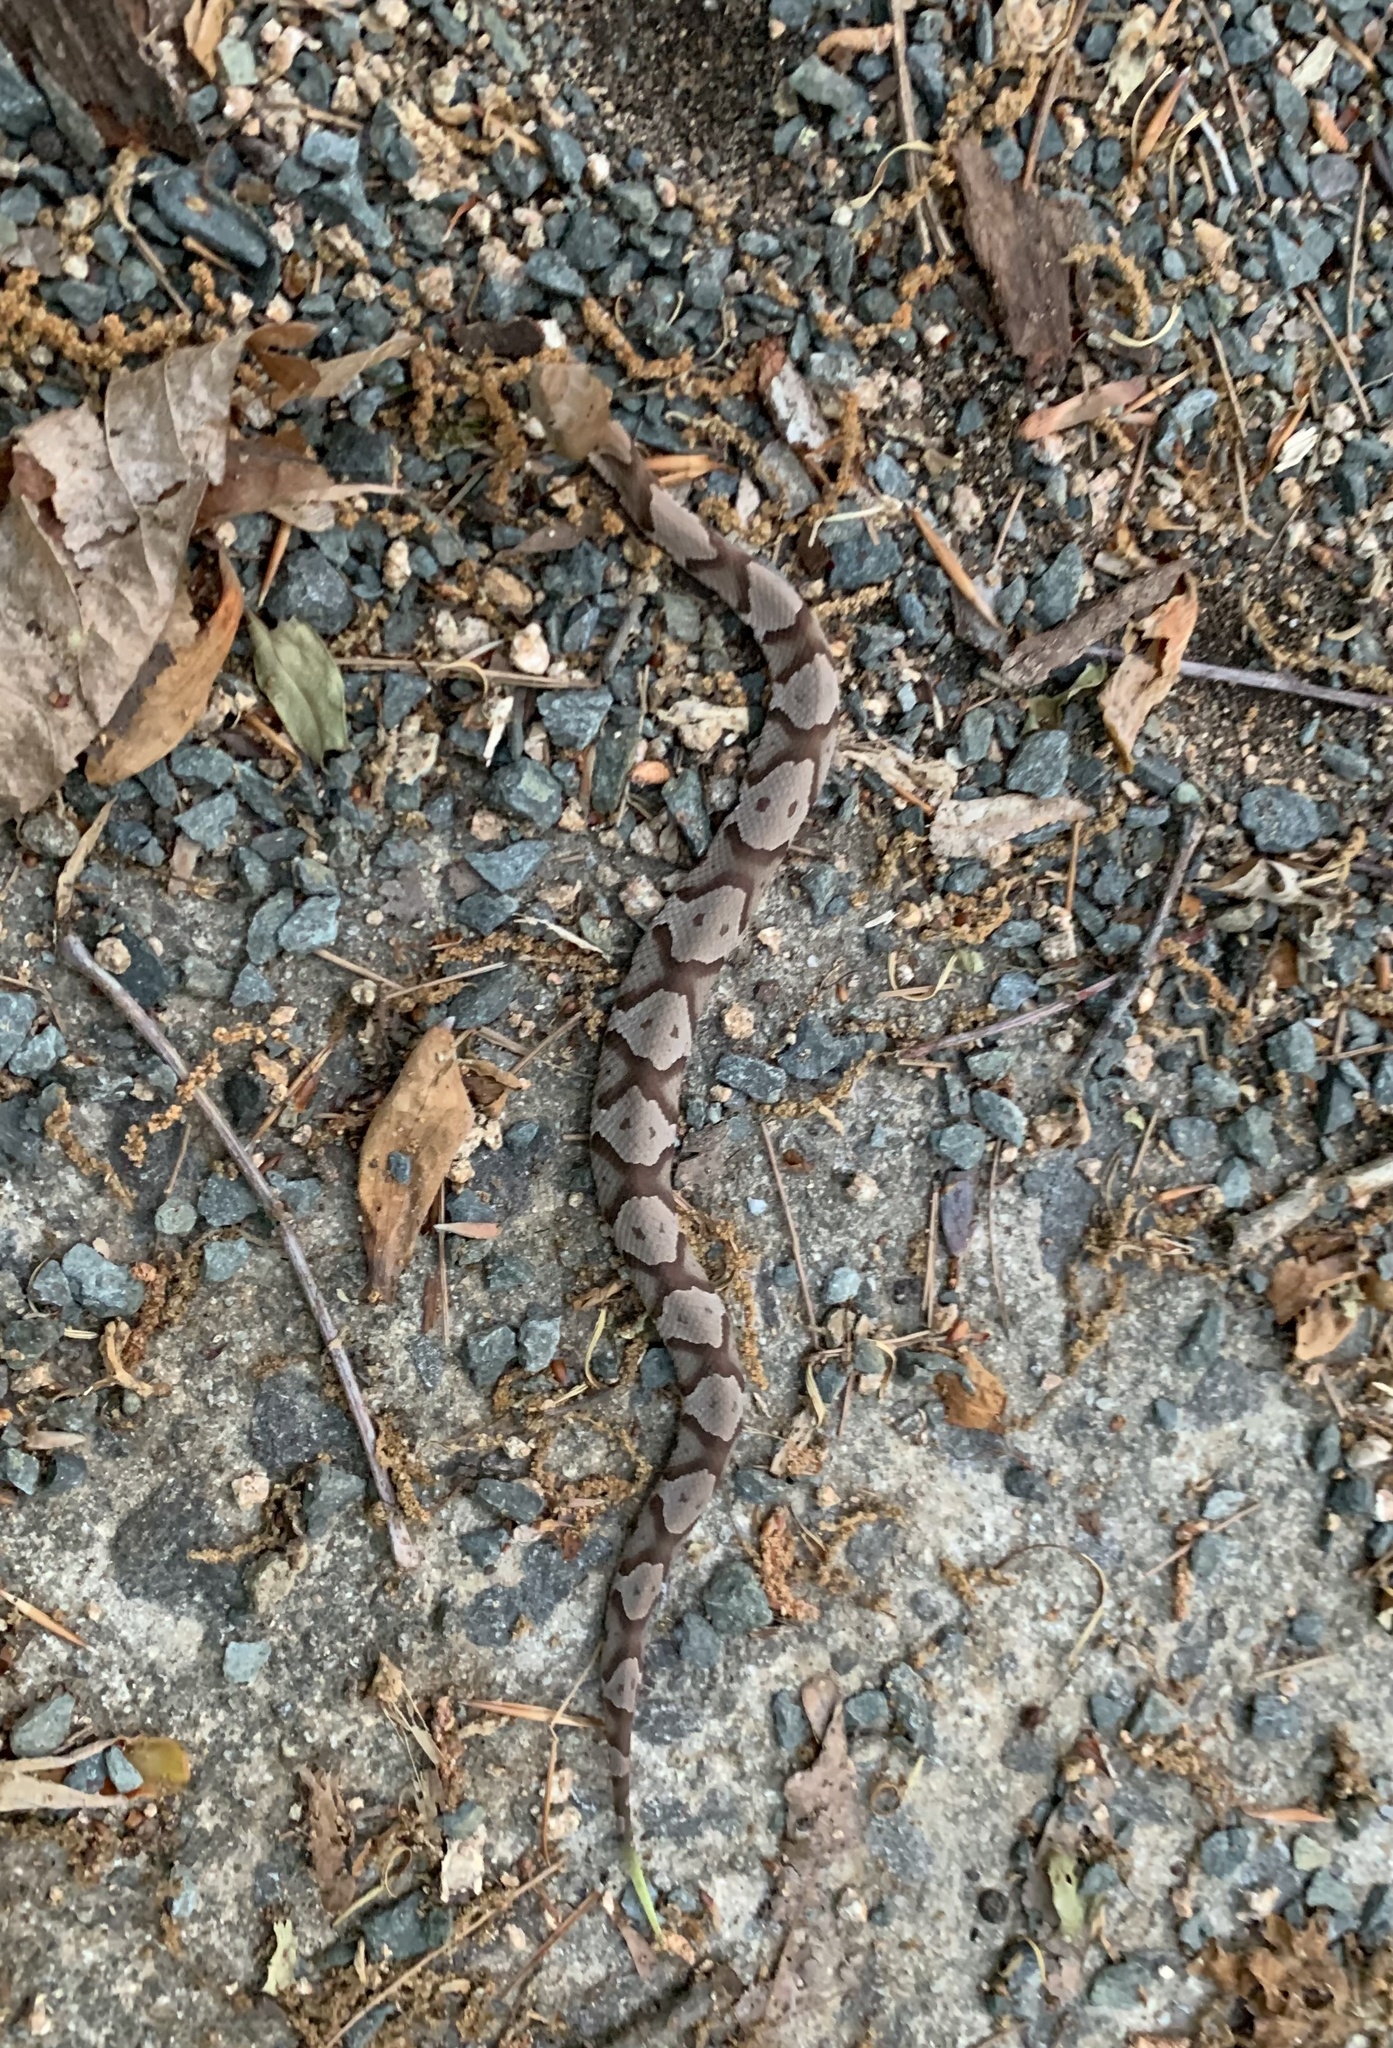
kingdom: Animalia
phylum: Chordata
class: Squamata
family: Viperidae
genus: Agkistrodon
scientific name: Agkistrodon contortrix
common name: Northern copperhead
